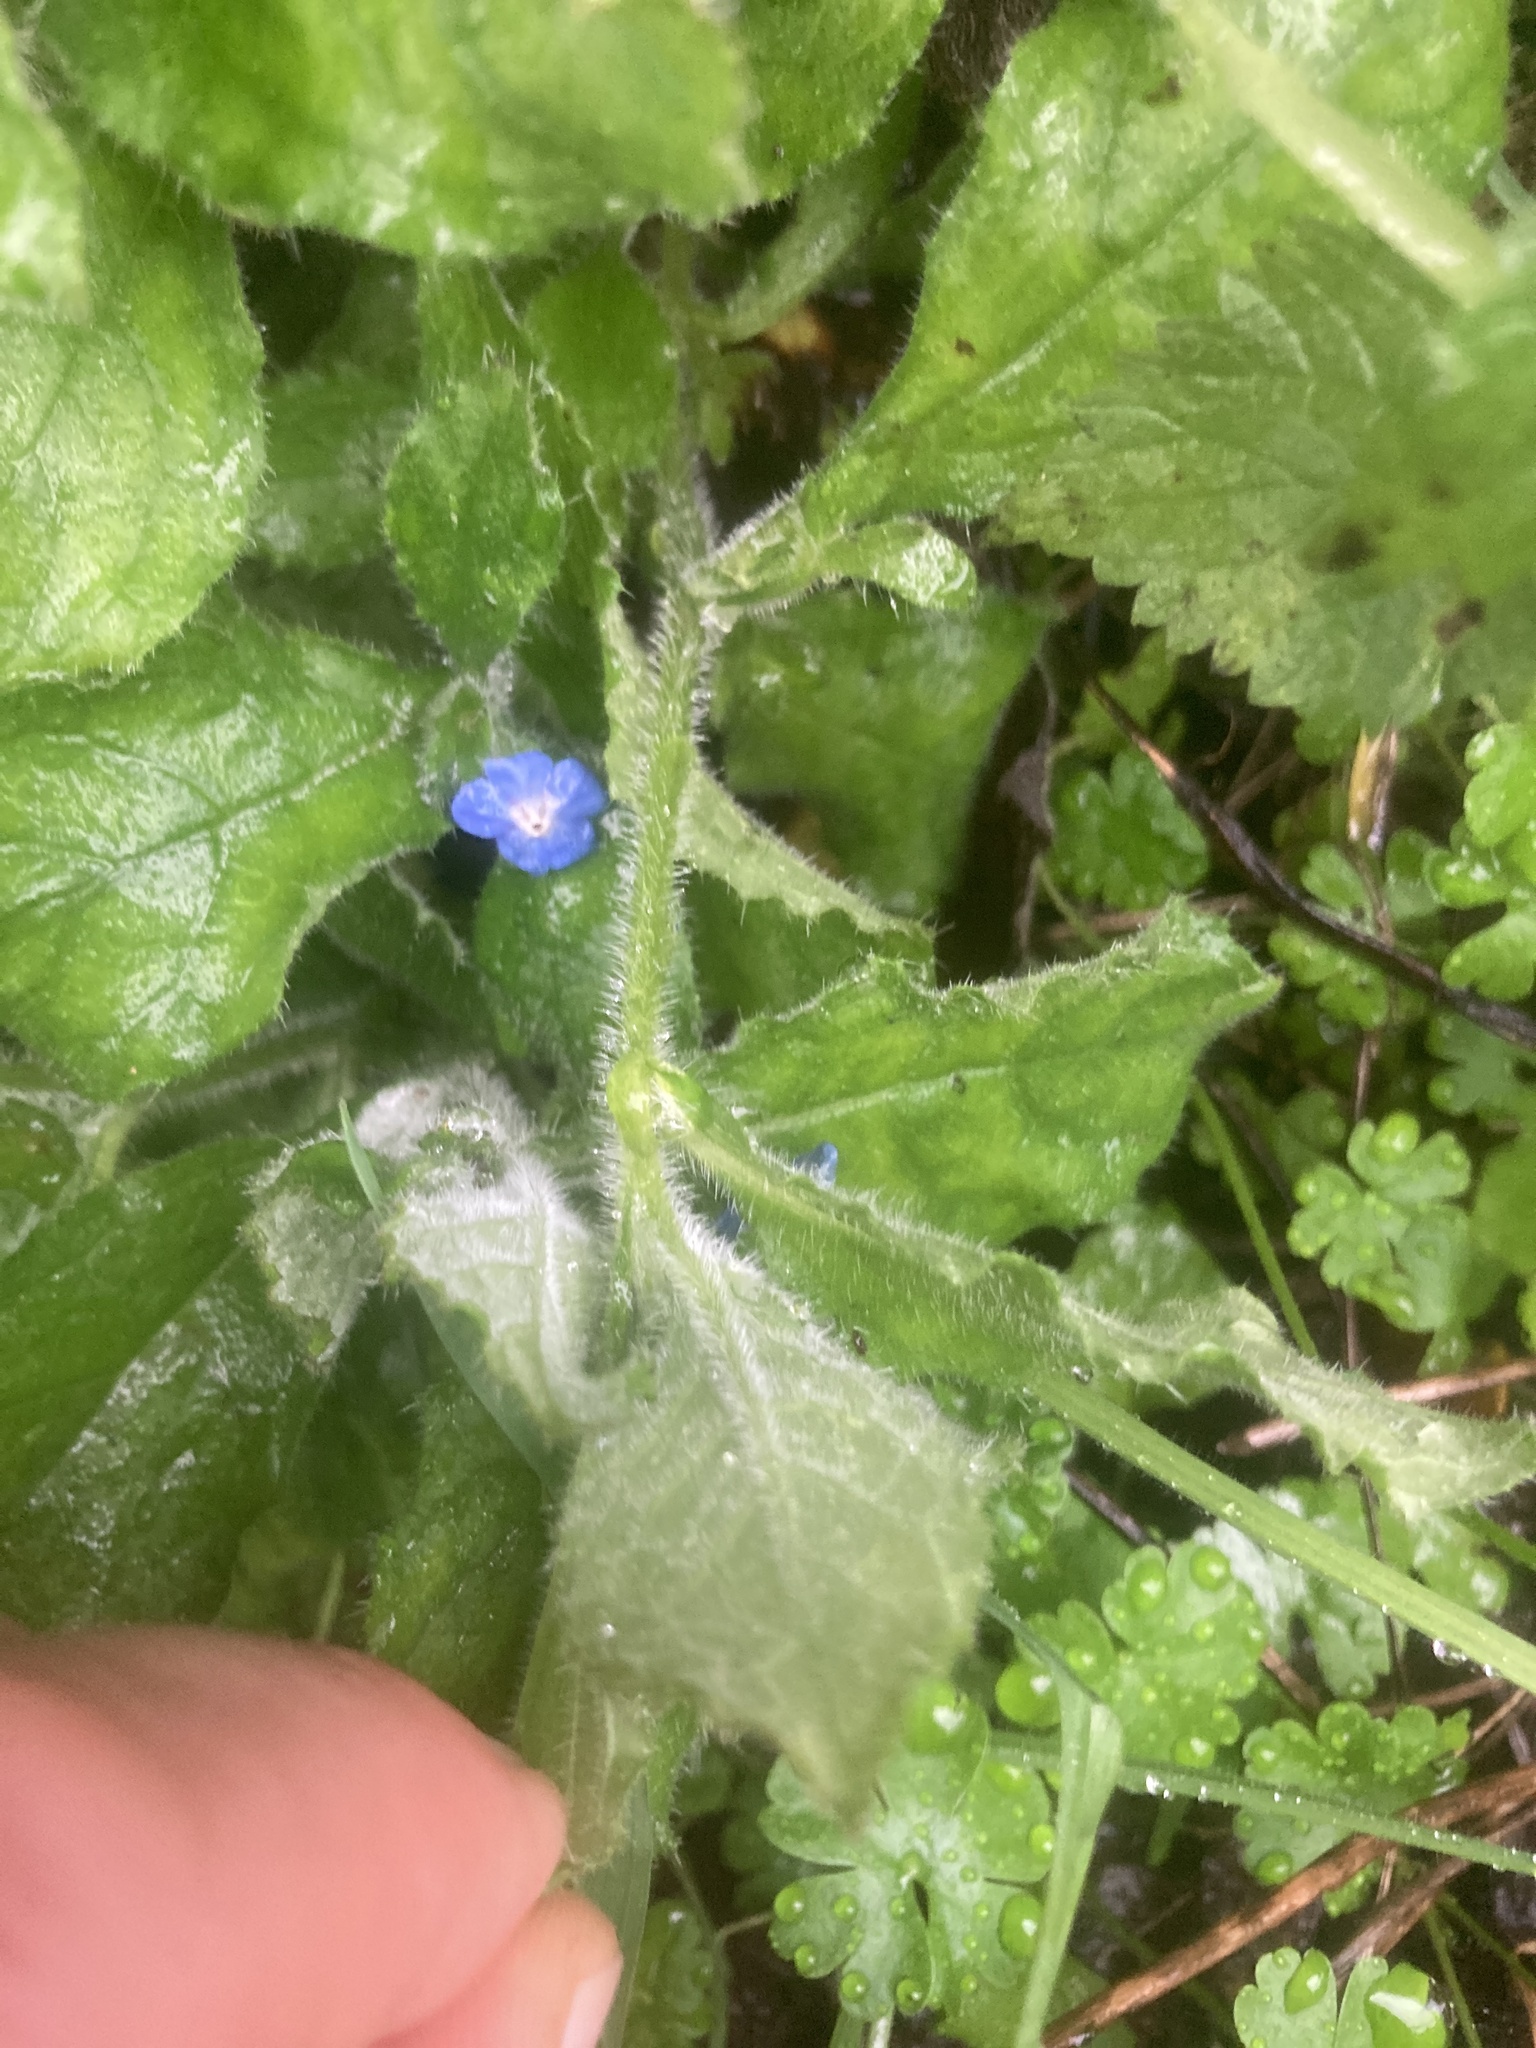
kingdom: Plantae
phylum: Tracheophyta
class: Magnoliopsida
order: Boraginales
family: Boraginaceae
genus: Pentaglottis
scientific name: Pentaglottis sempervirens
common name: Green alkanet
